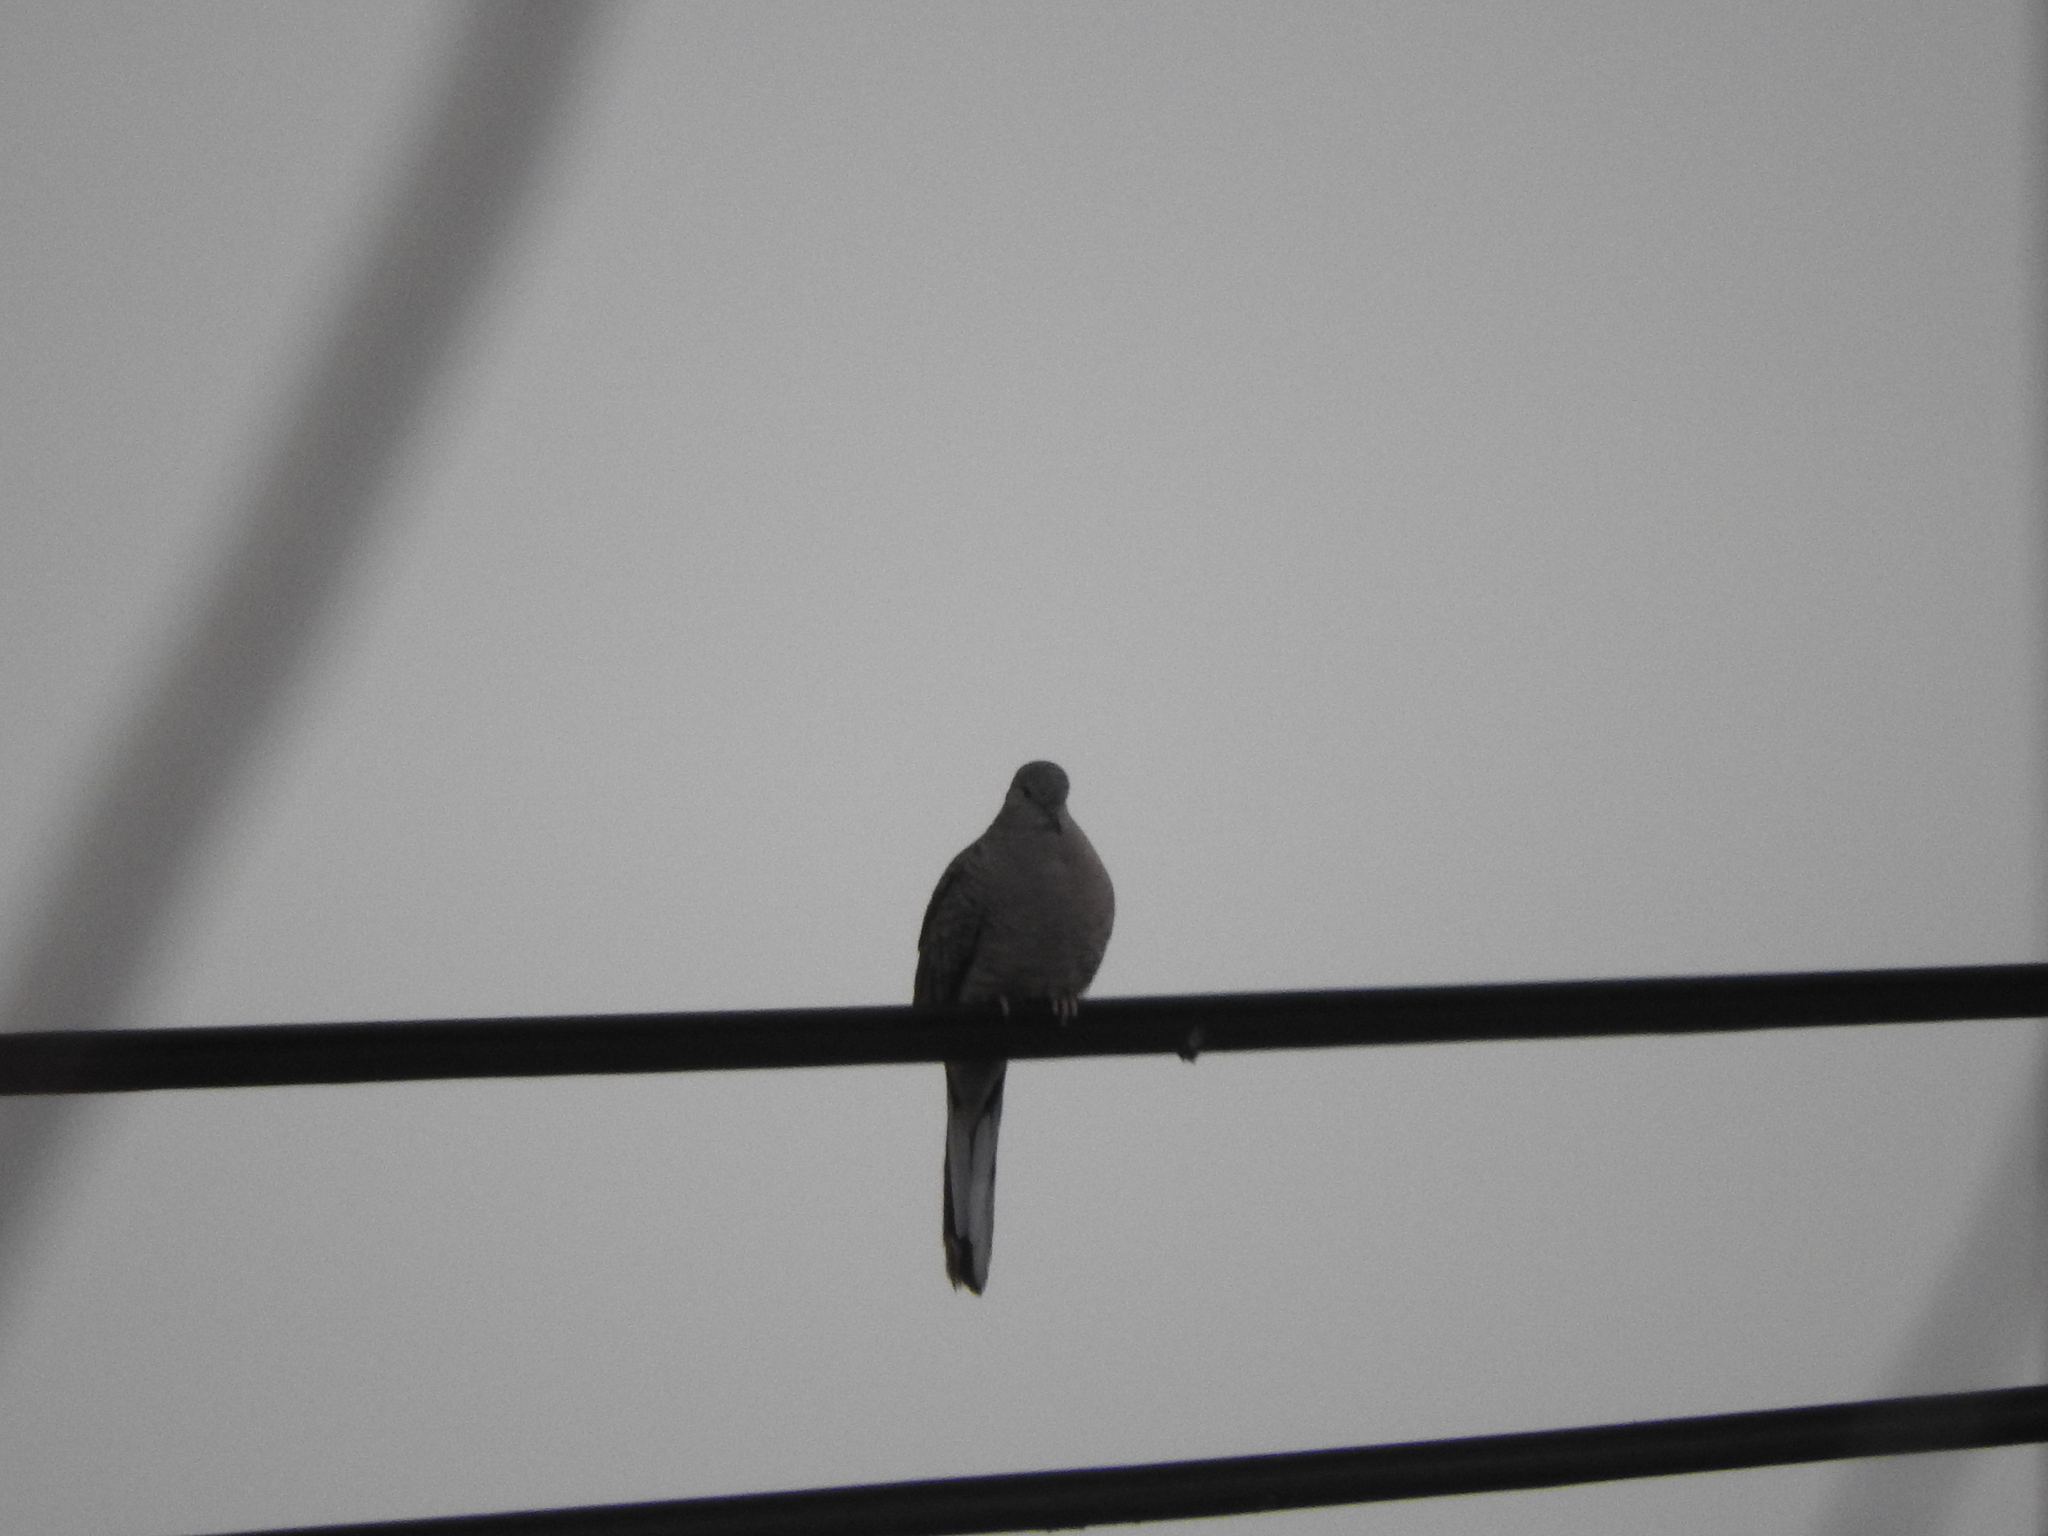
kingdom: Animalia
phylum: Chordata
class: Aves
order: Columbiformes
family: Columbidae
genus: Columbina
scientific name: Columbina inca
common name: Inca dove
